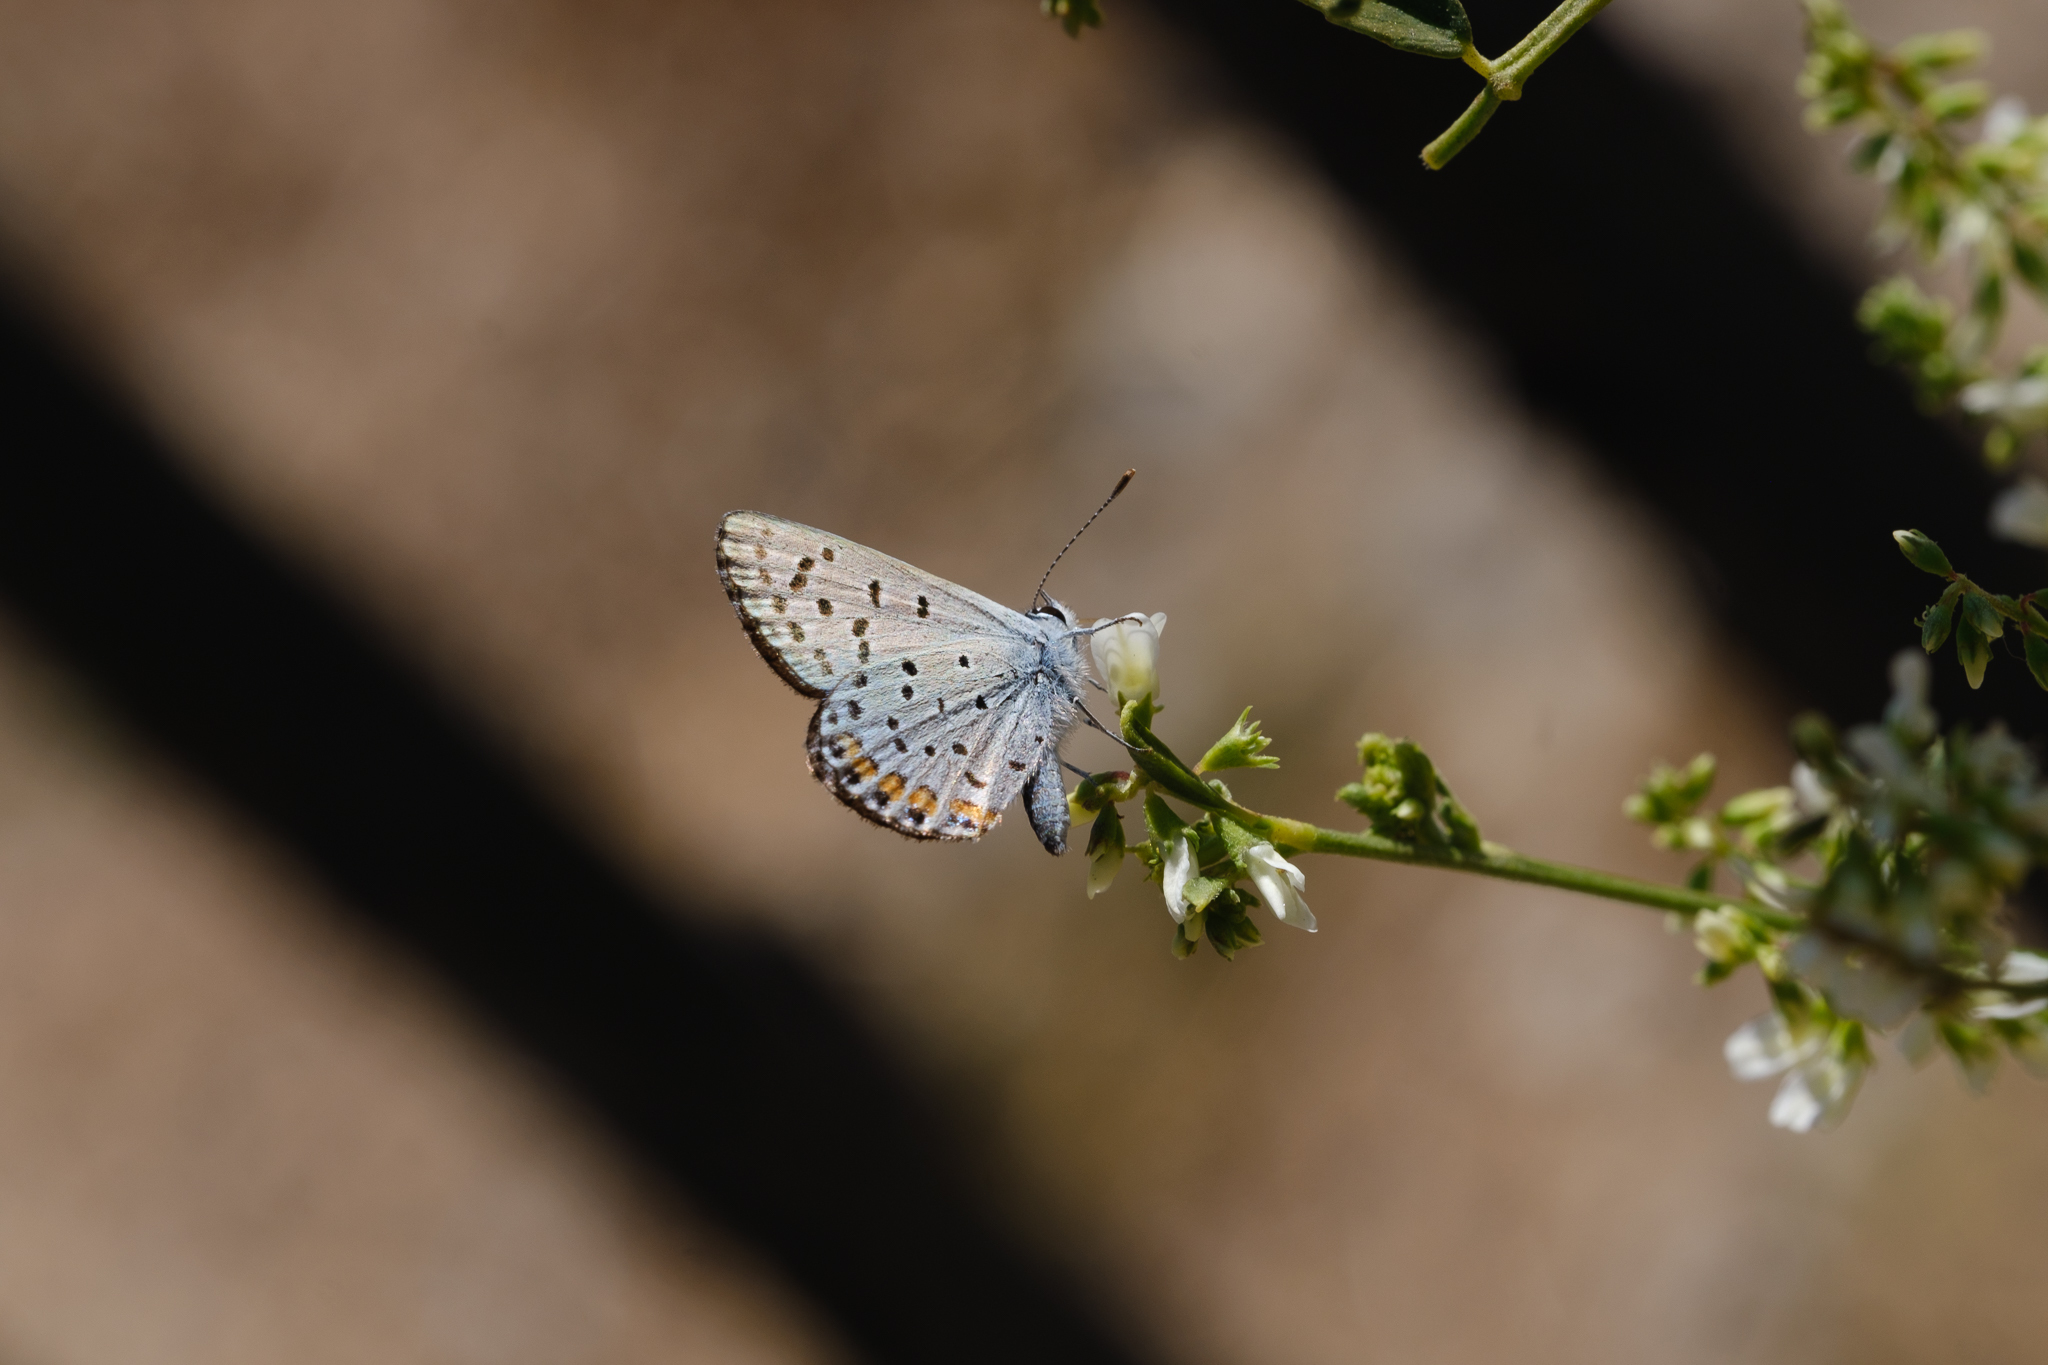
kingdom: Animalia
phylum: Arthropoda
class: Insecta
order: Lepidoptera
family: Lycaenidae
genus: Icaricia
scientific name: Icaricia acmon
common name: Acmon blue
